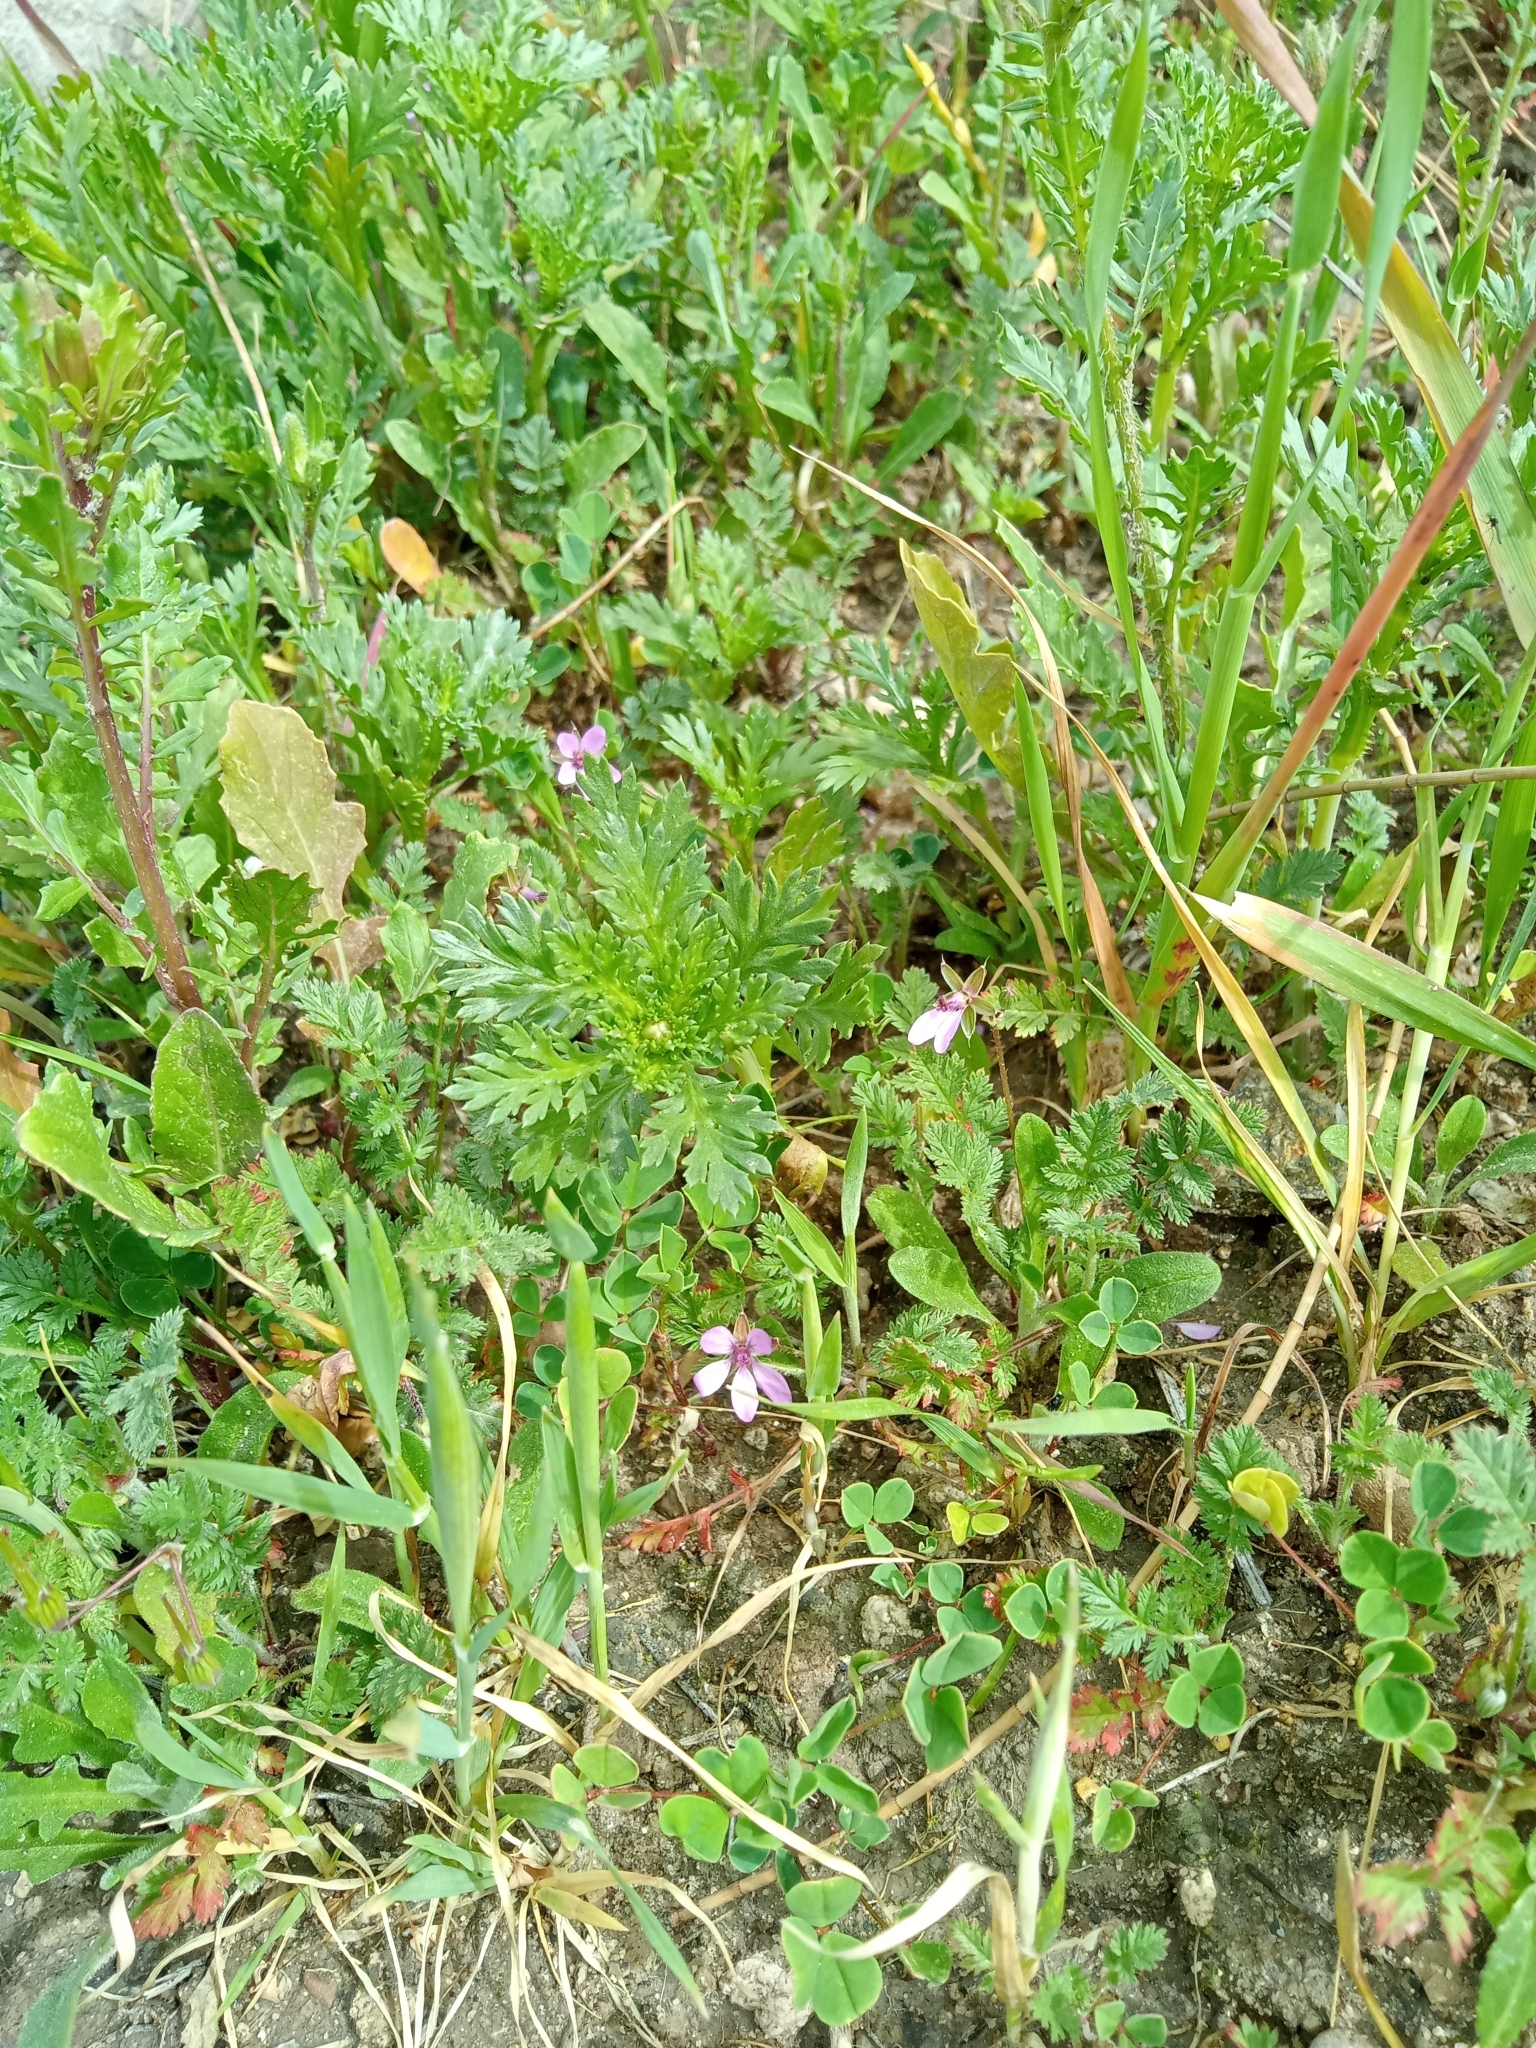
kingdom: Plantae
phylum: Tracheophyta
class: Magnoliopsida
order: Geraniales
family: Geraniaceae
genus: Erodium
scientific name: Erodium cicutarium
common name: Common stork's-bill
